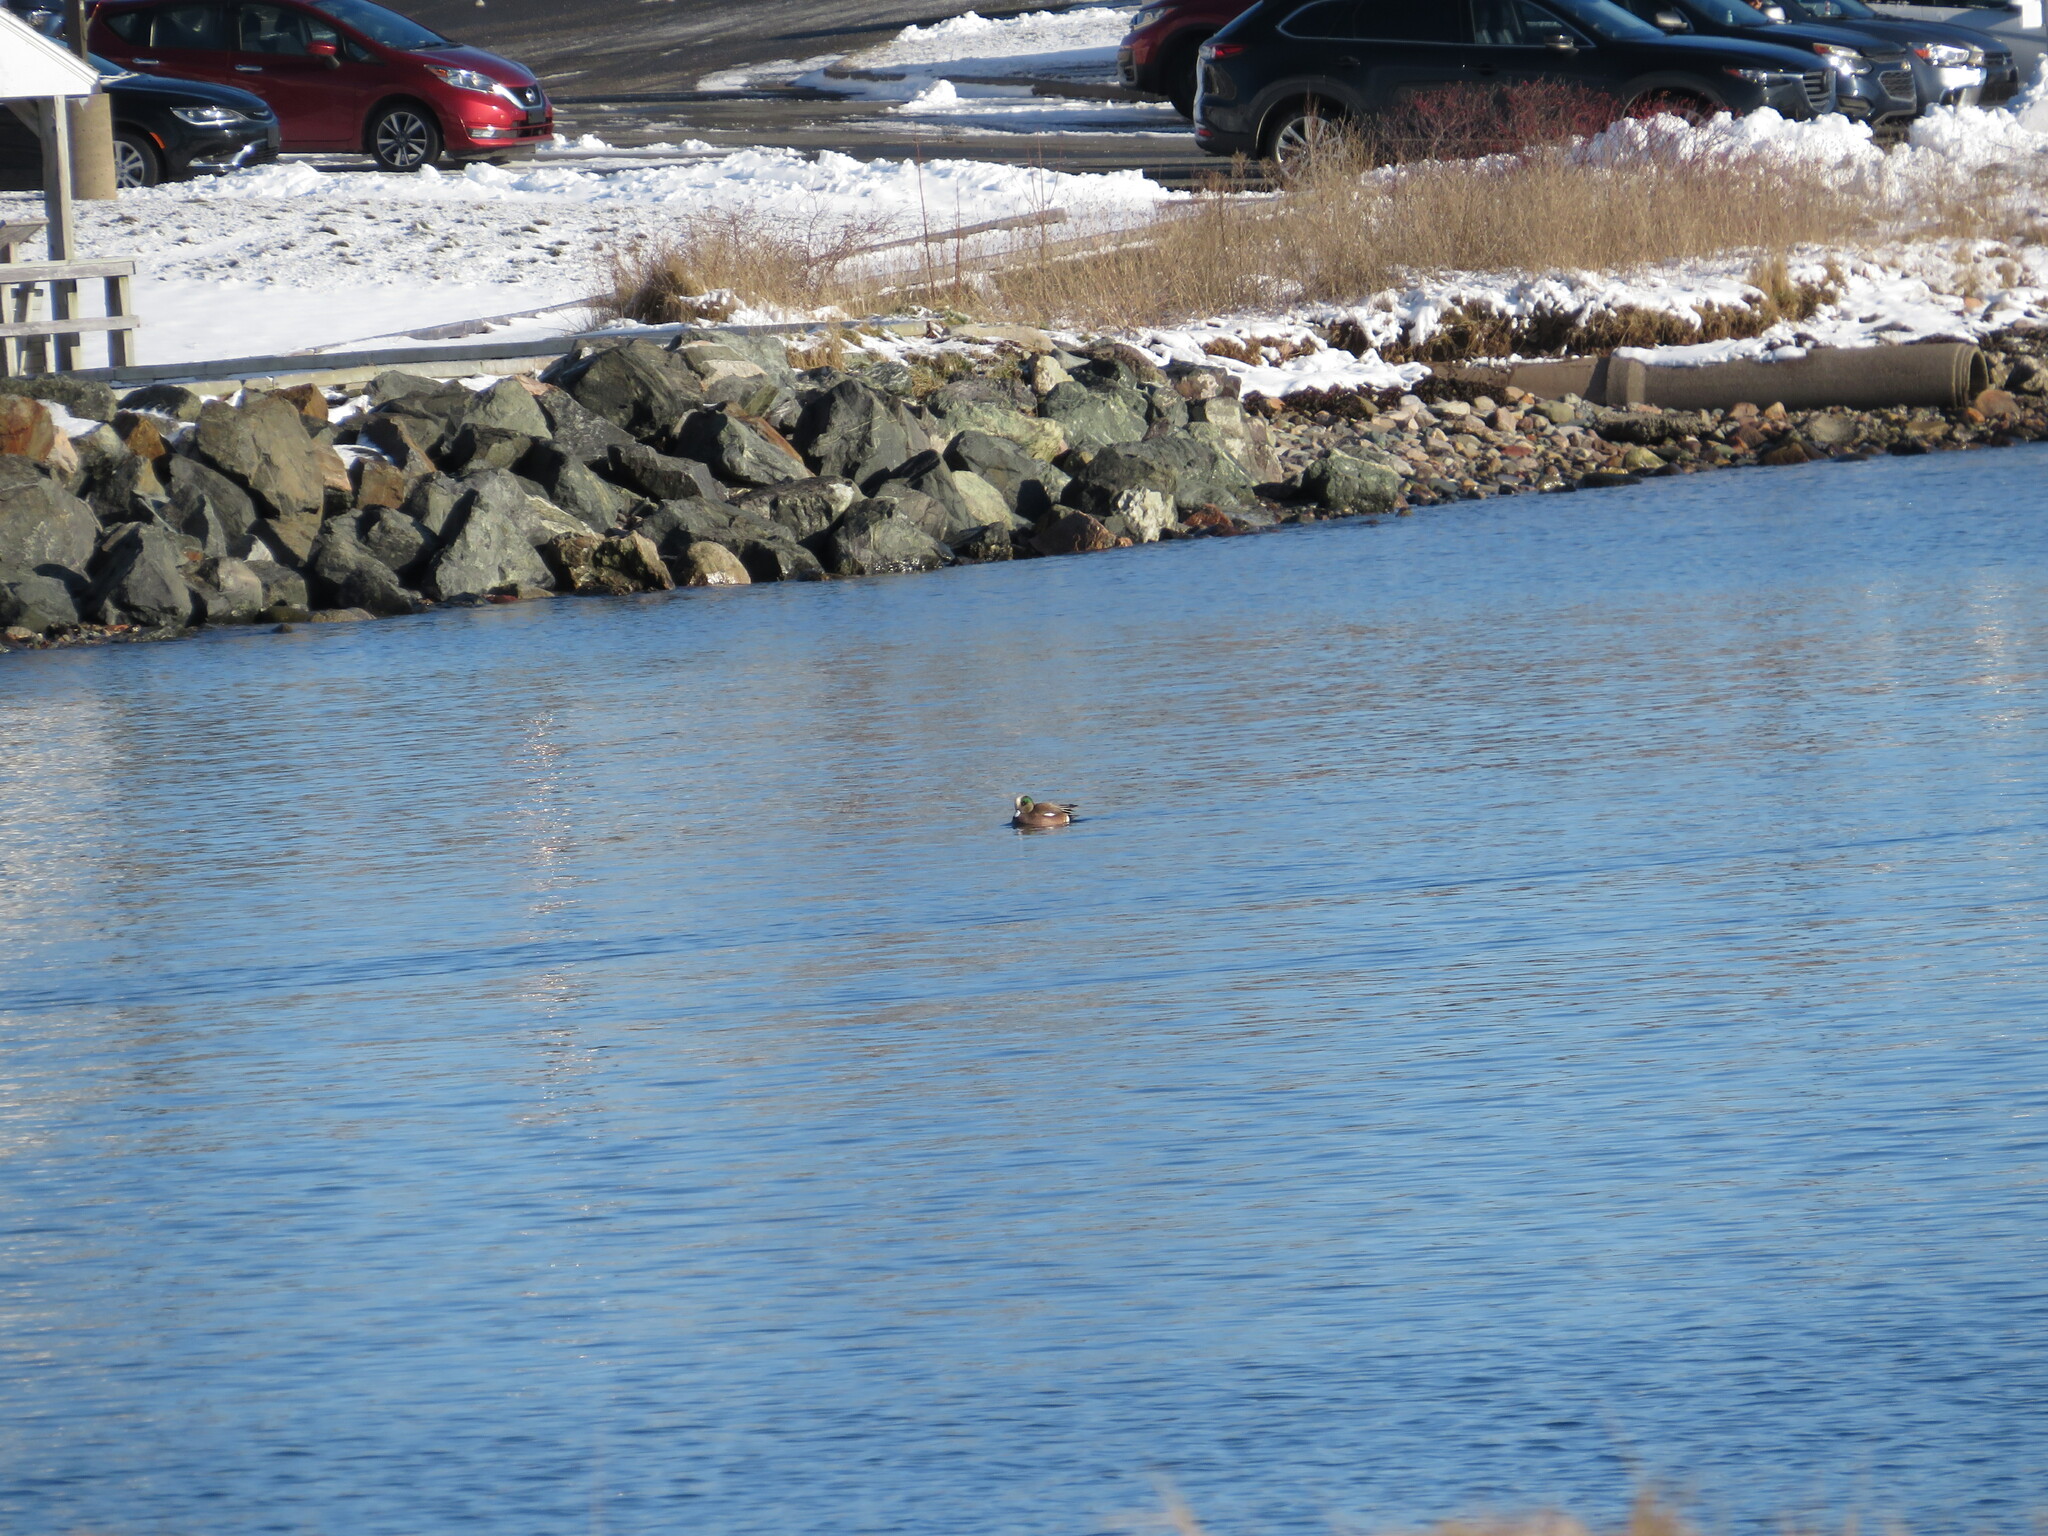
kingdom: Animalia
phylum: Chordata
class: Aves
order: Anseriformes
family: Anatidae
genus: Mareca
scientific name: Mareca americana
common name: American wigeon
